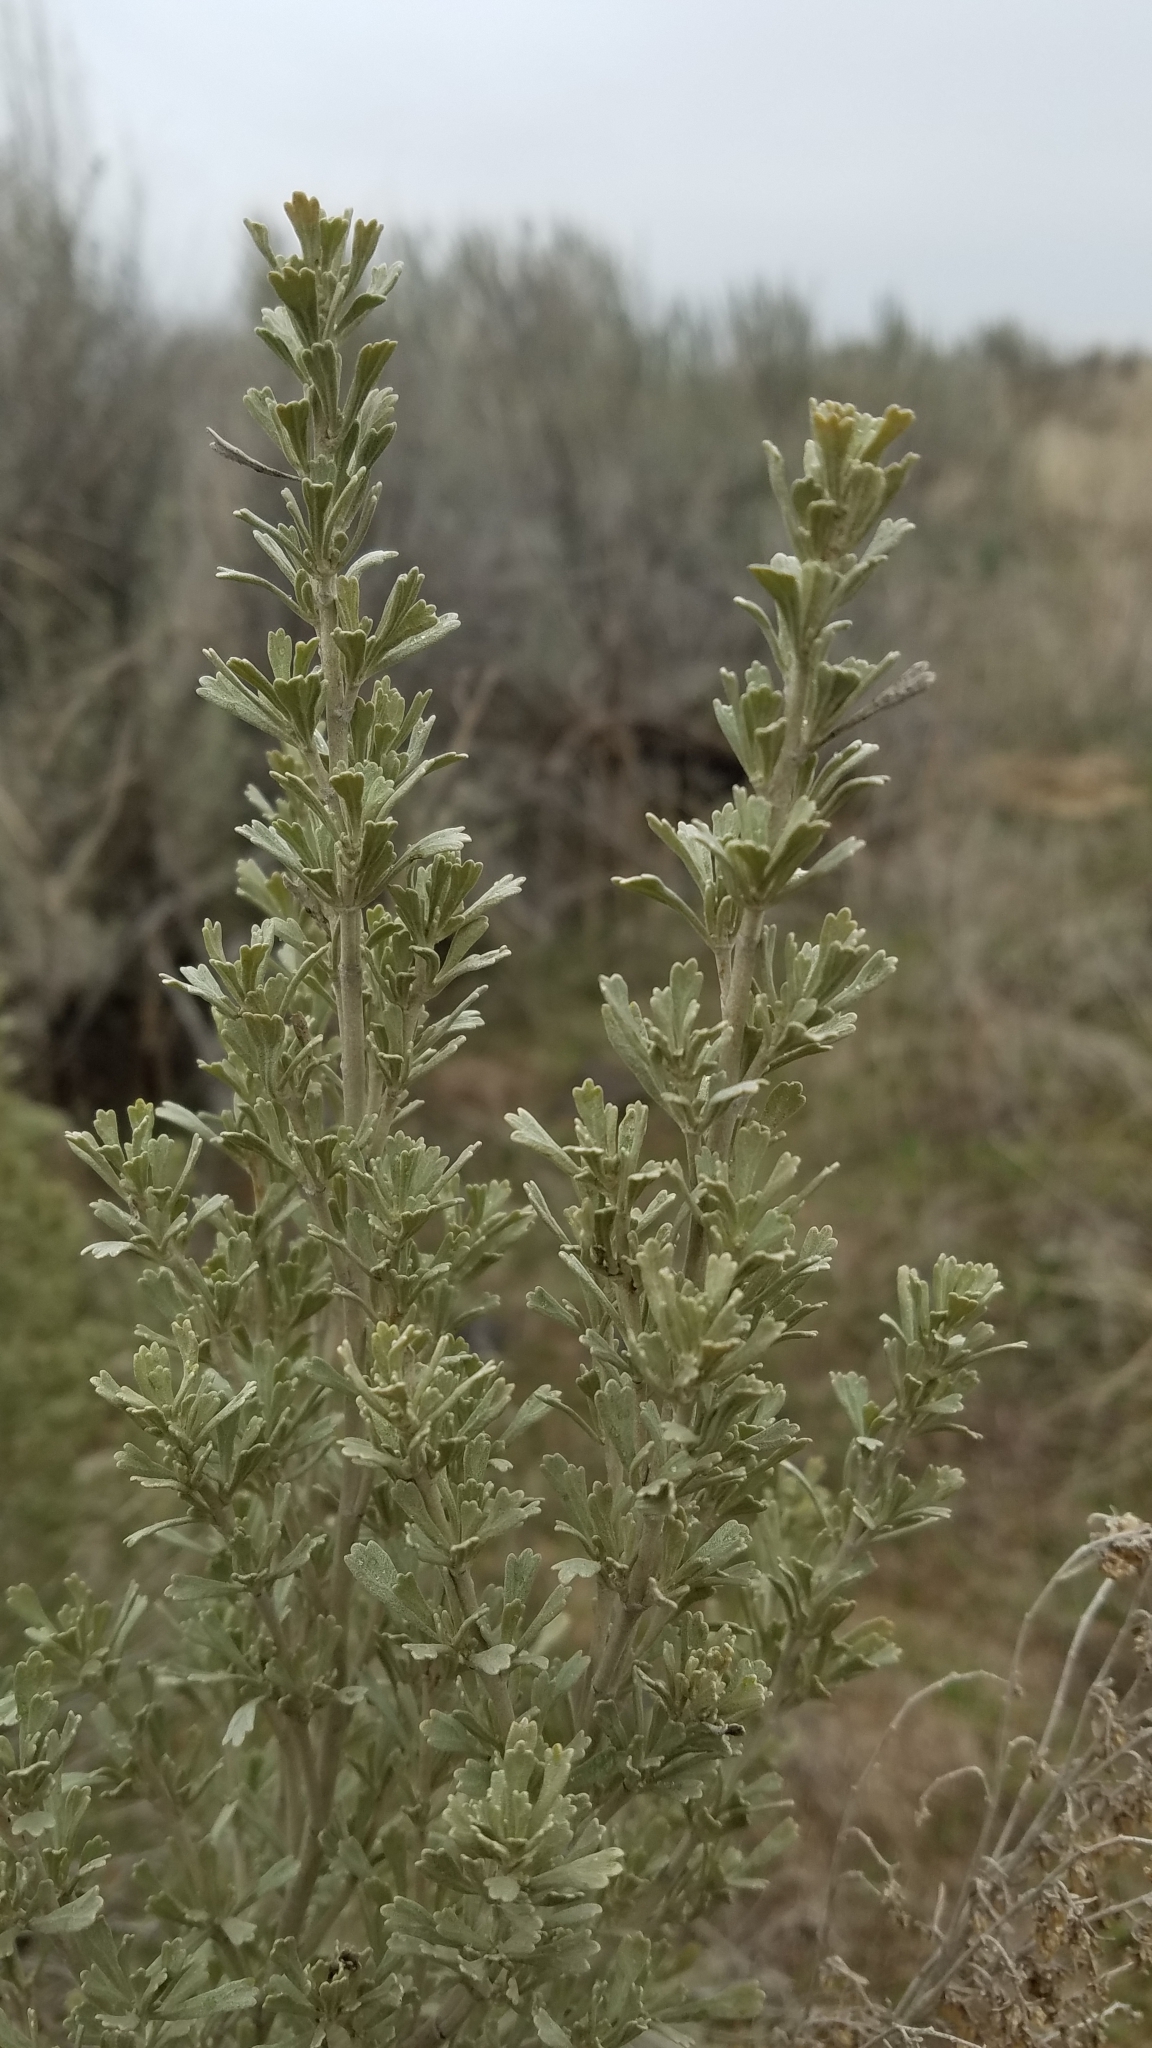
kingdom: Plantae
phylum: Tracheophyta
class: Magnoliopsida
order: Asterales
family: Asteraceae
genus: Artemisia
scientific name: Artemisia tridentata
